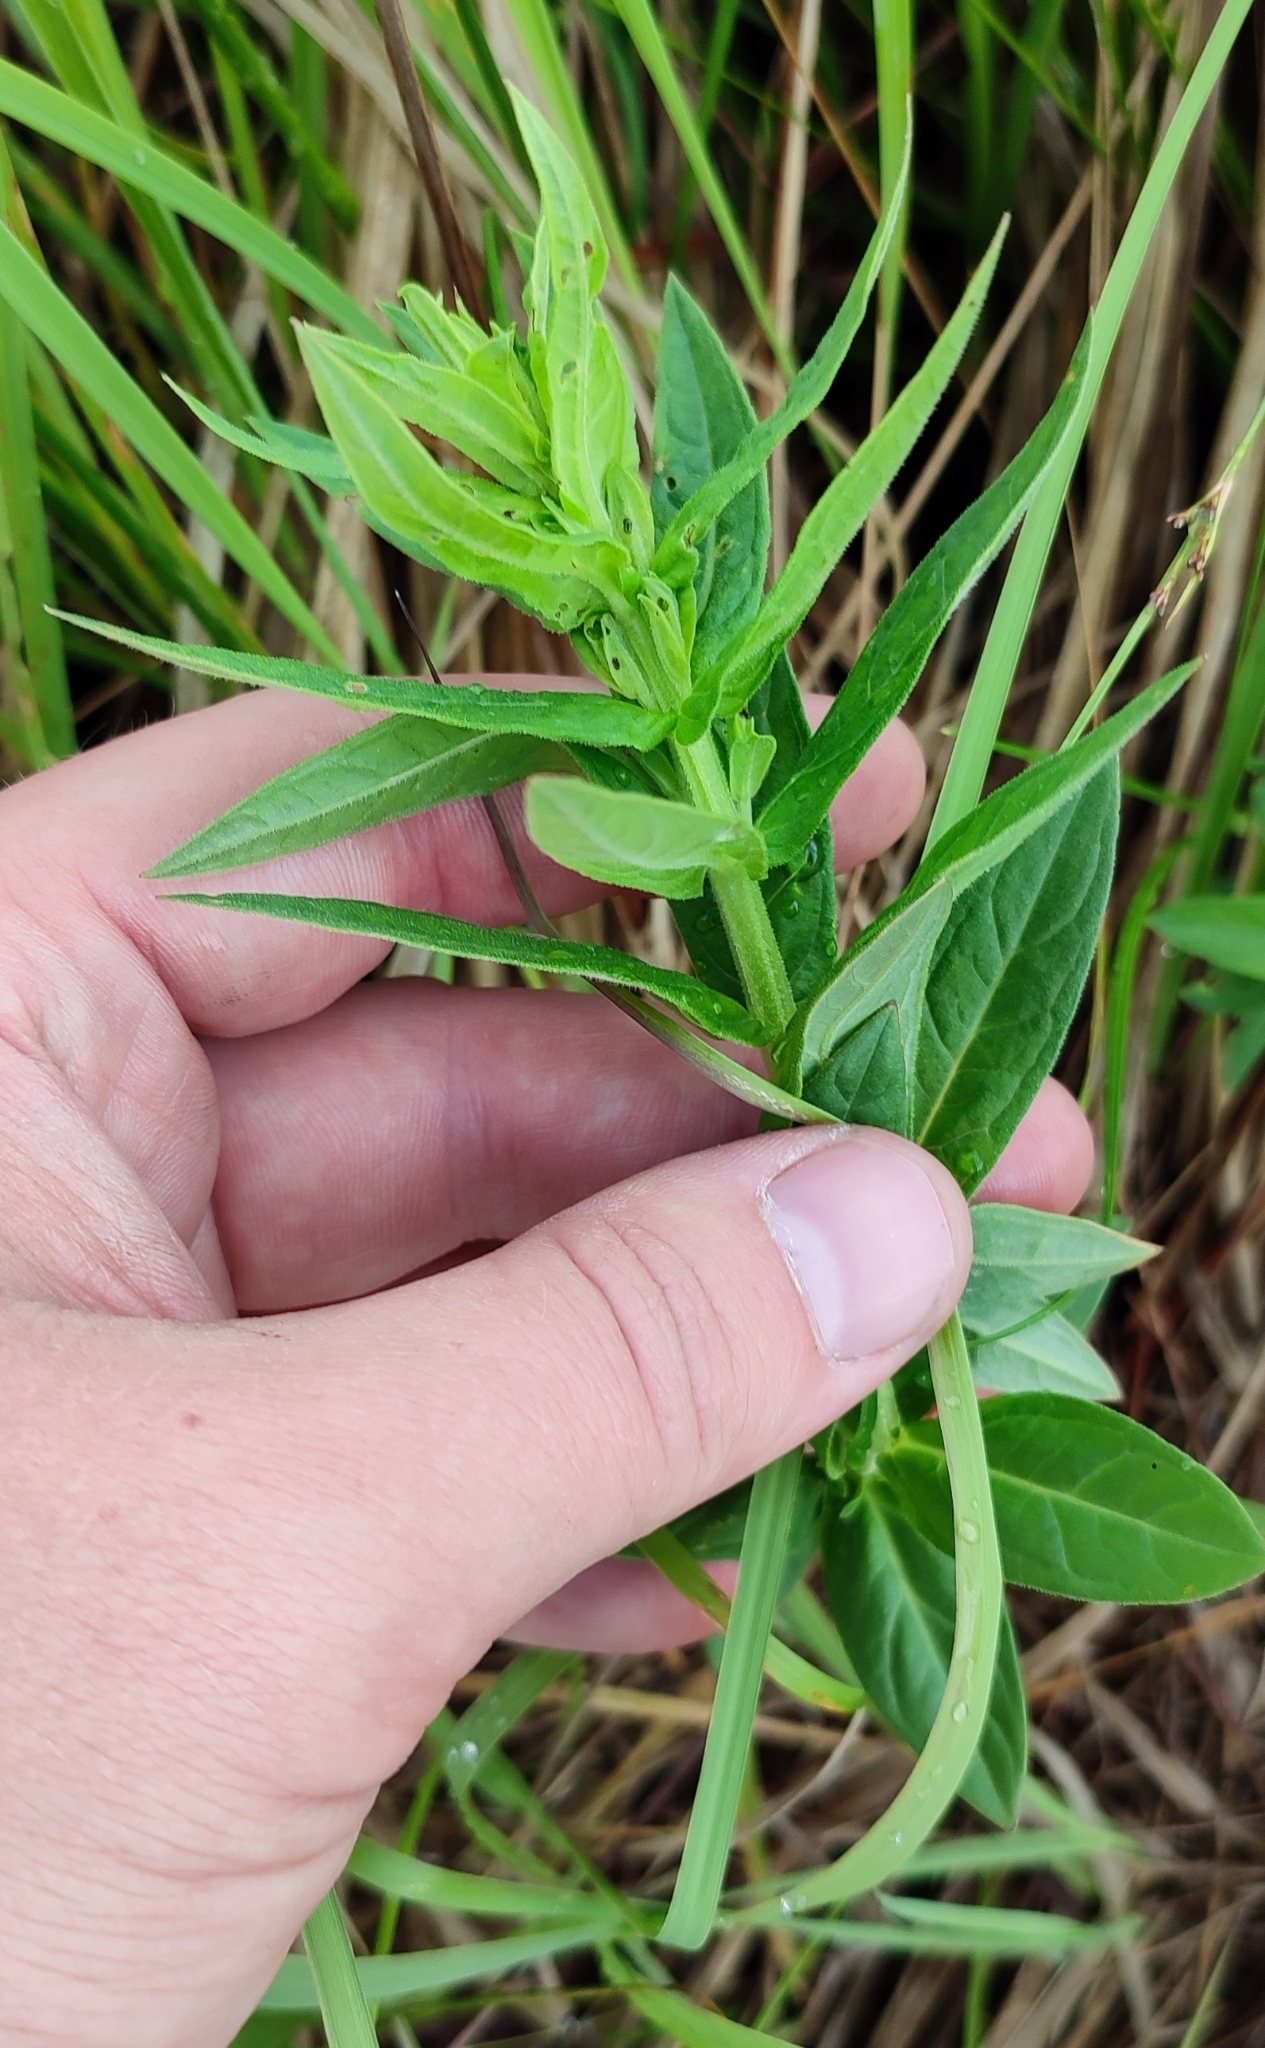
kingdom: Plantae
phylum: Tracheophyta
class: Magnoliopsida
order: Myrtales
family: Lythraceae
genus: Lythrum
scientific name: Lythrum salicaria
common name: Purple loosestrife
